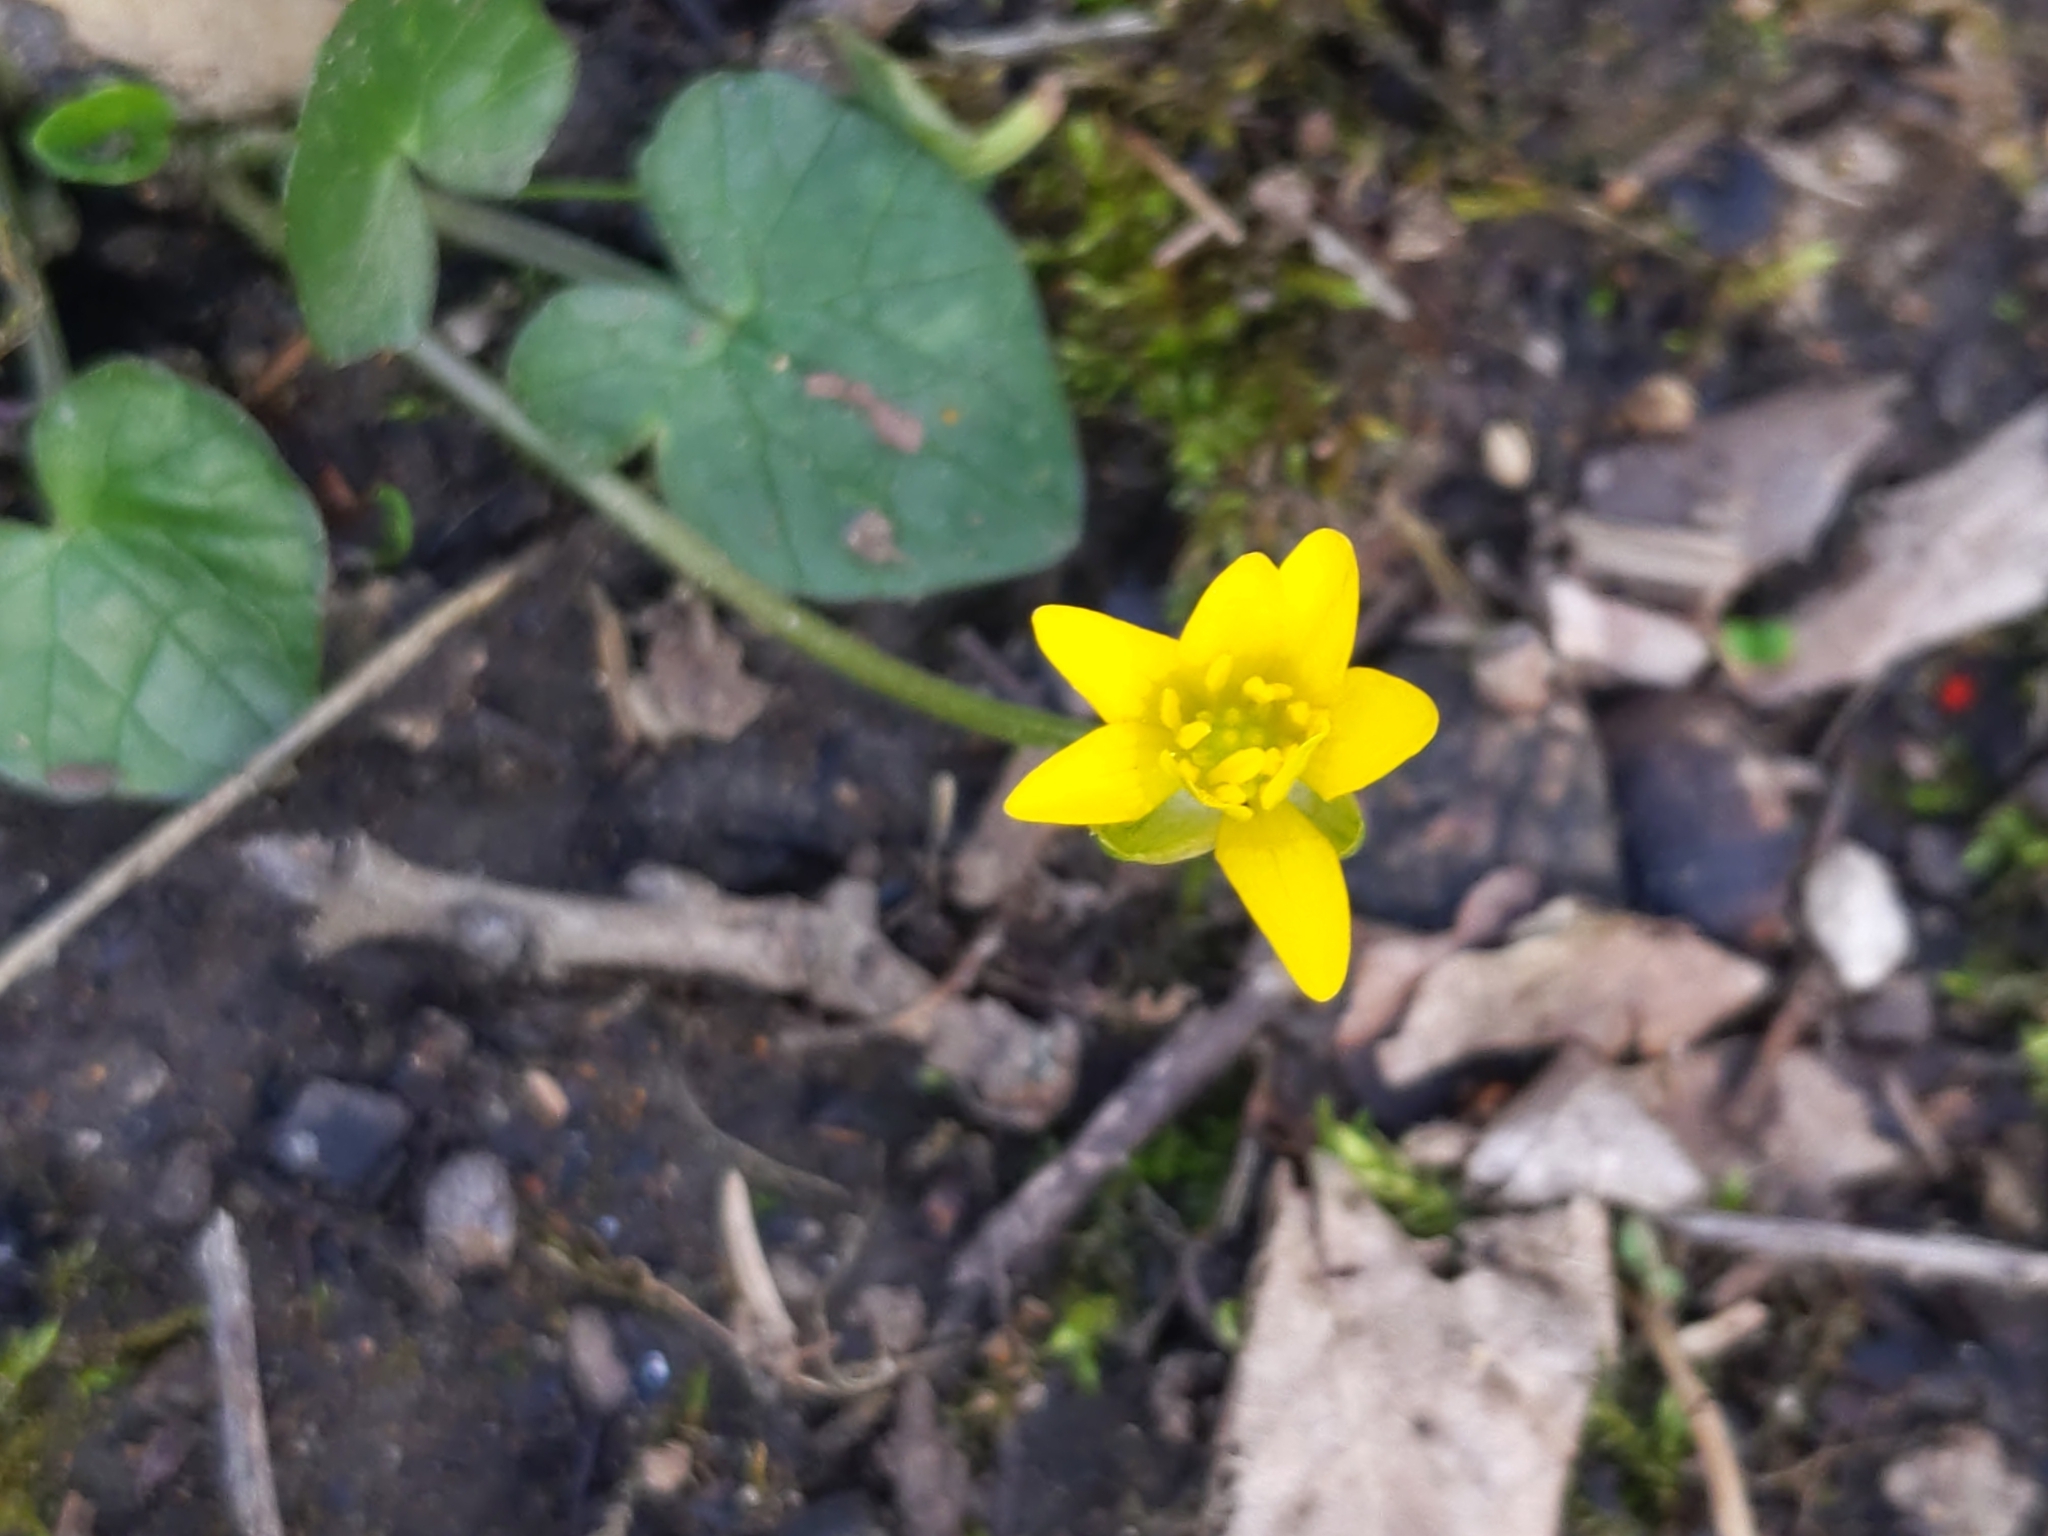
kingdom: Plantae
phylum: Tracheophyta
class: Magnoliopsida
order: Ranunculales
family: Ranunculaceae
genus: Ficaria
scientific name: Ficaria verna
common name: Lesser celandine
